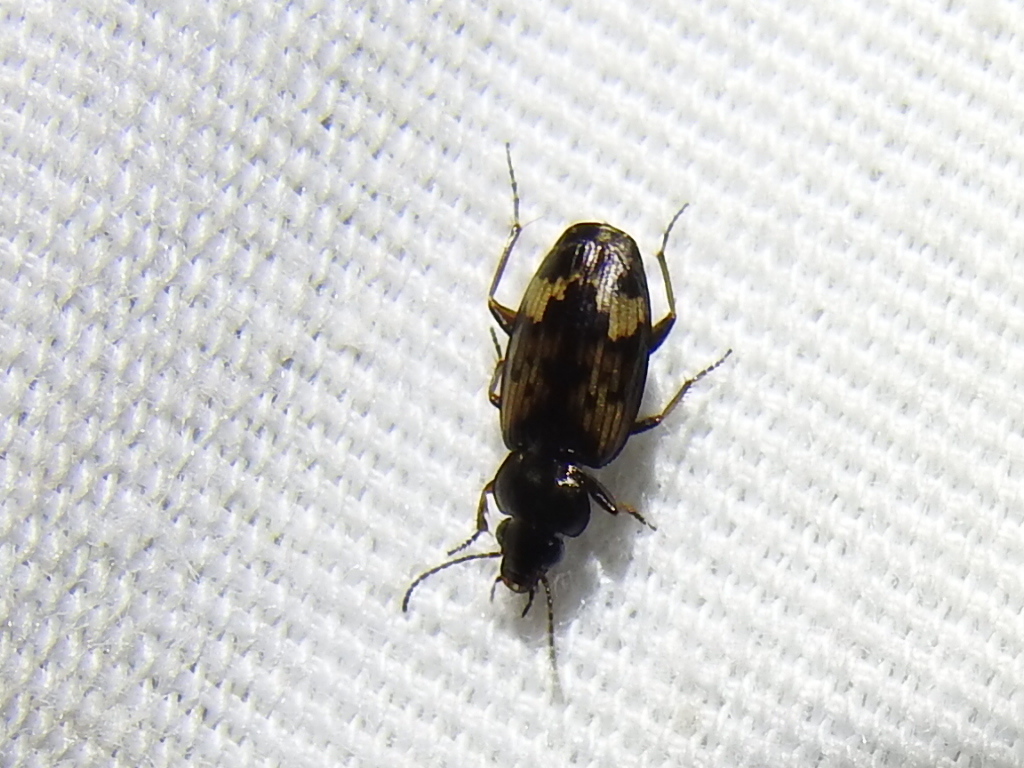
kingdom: Animalia
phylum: Arthropoda
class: Insecta
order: Coleoptera
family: Carabidae
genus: Tetragonoderus
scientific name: Tetragonoderus intersectus
